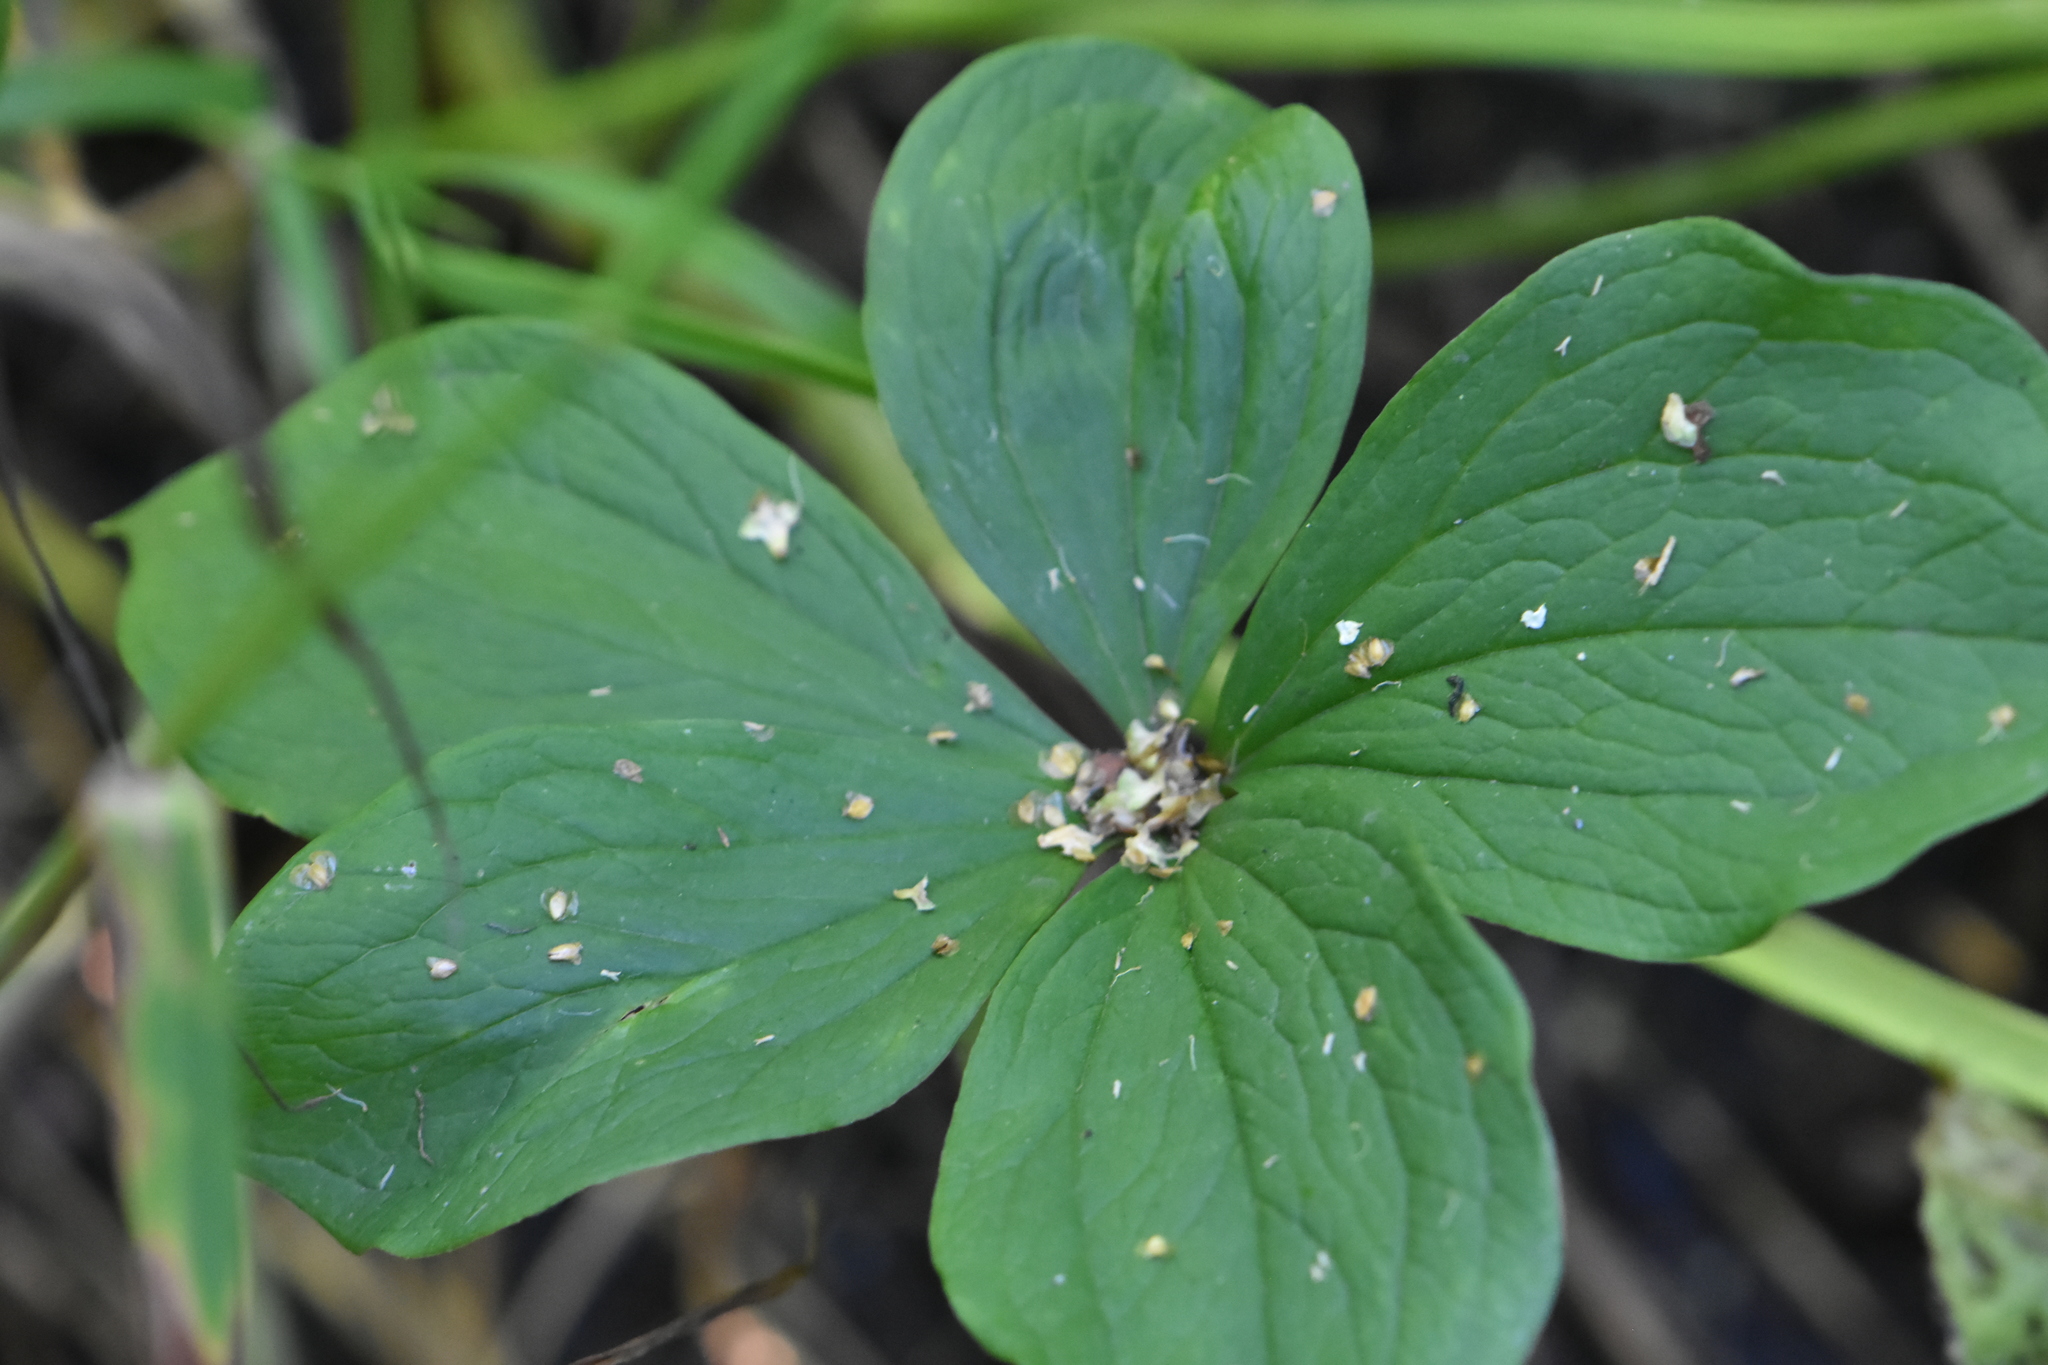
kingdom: Plantae
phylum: Tracheophyta
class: Liliopsida
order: Liliales
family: Melanthiaceae
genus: Paris
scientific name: Paris quadrifolia
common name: Herb-paris
